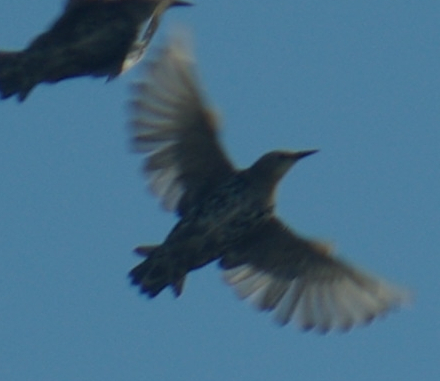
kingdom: Animalia
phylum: Chordata
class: Aves
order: Passeriformes
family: Sturnidae
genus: Sturnus
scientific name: Sturnus vulgaris
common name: Common starling
